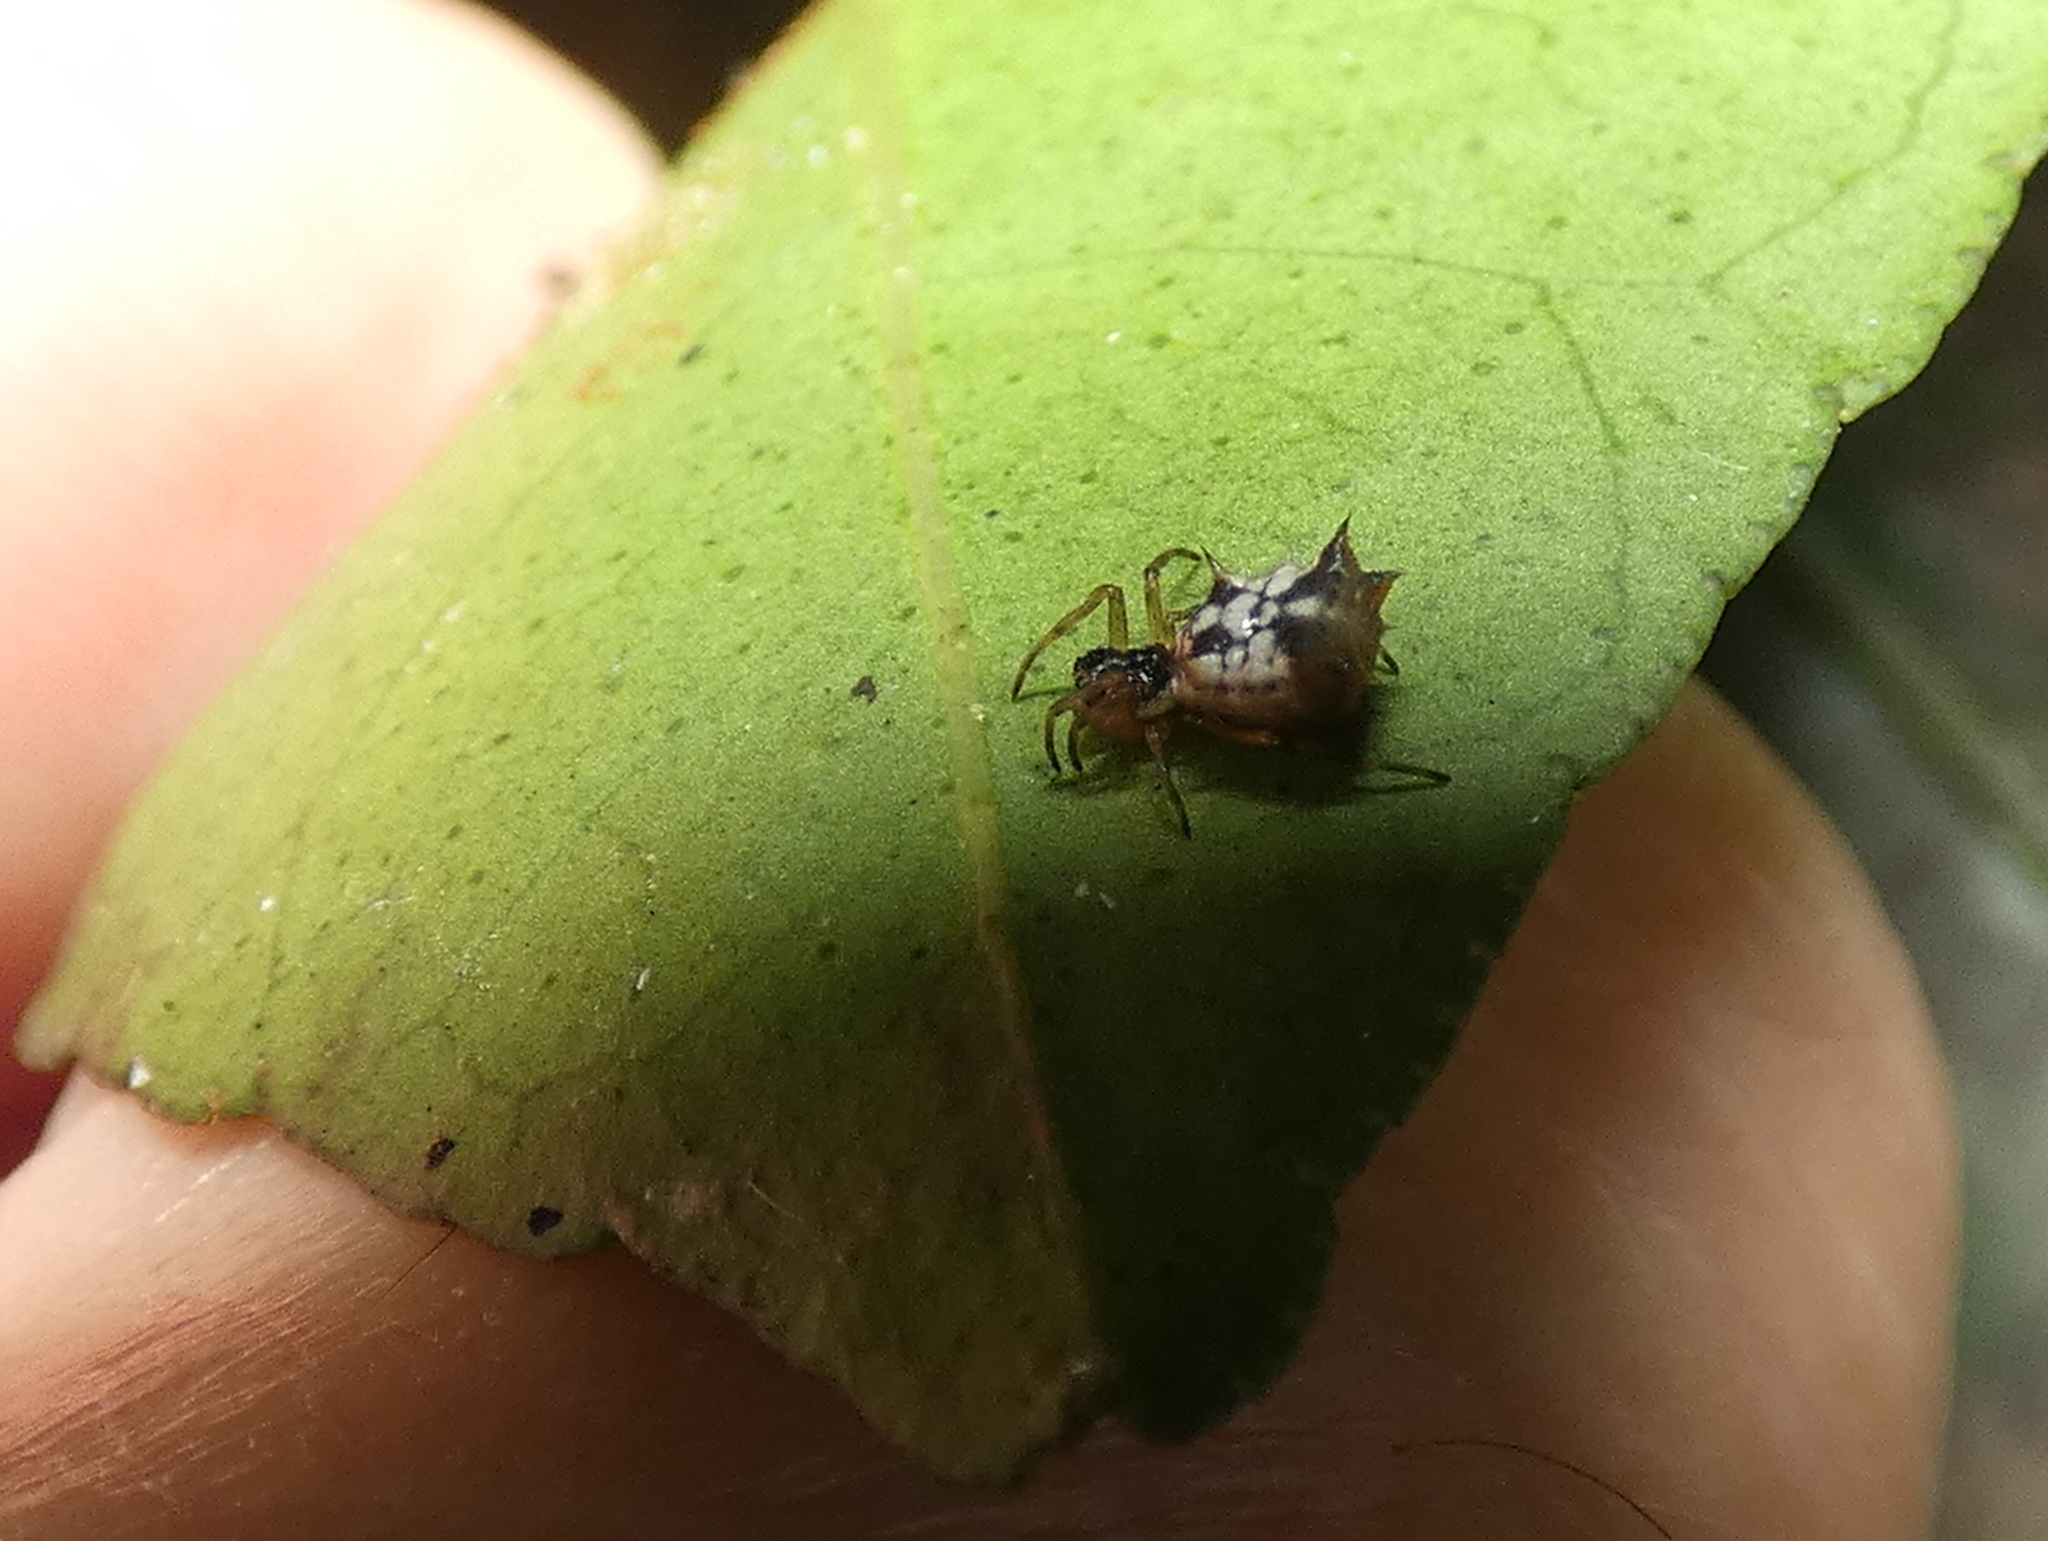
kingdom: Animalia
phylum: Arthropoda
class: Arachnida
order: Araneae
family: Araneidae
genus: Micrathena
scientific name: Micrathena picta
